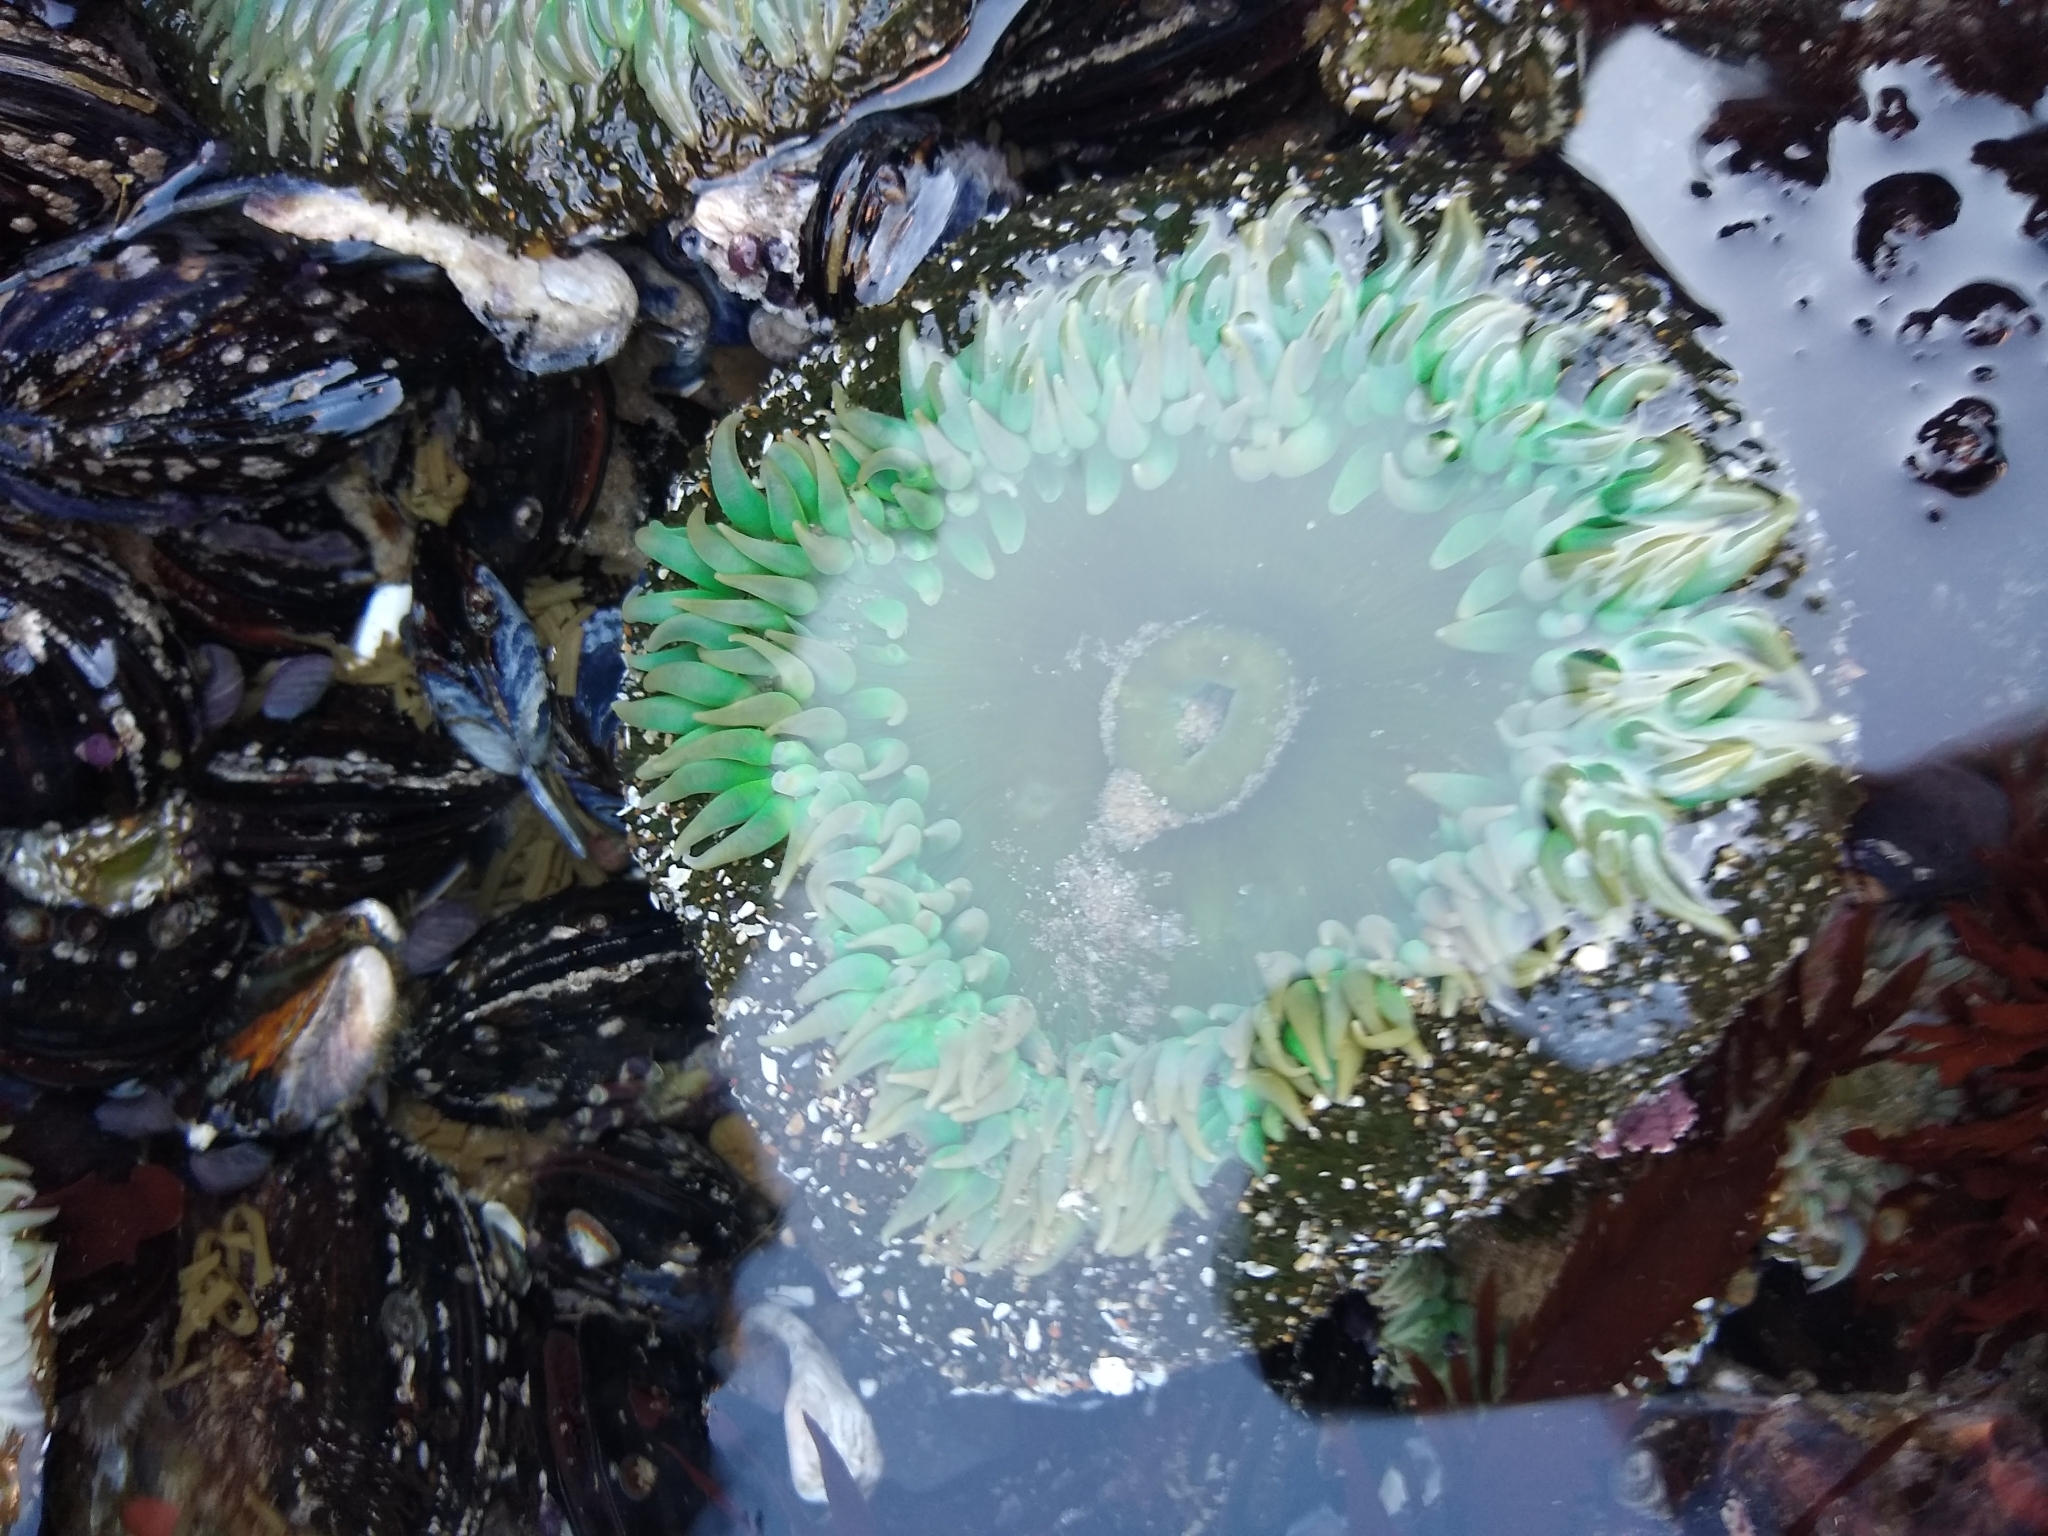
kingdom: Animalia
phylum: Cnidaria
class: Anthozoa
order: Actiniaria
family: Actiniidae
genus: Anthopleura
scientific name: Anthopleura xanthogrammica
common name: Giant green anemone
